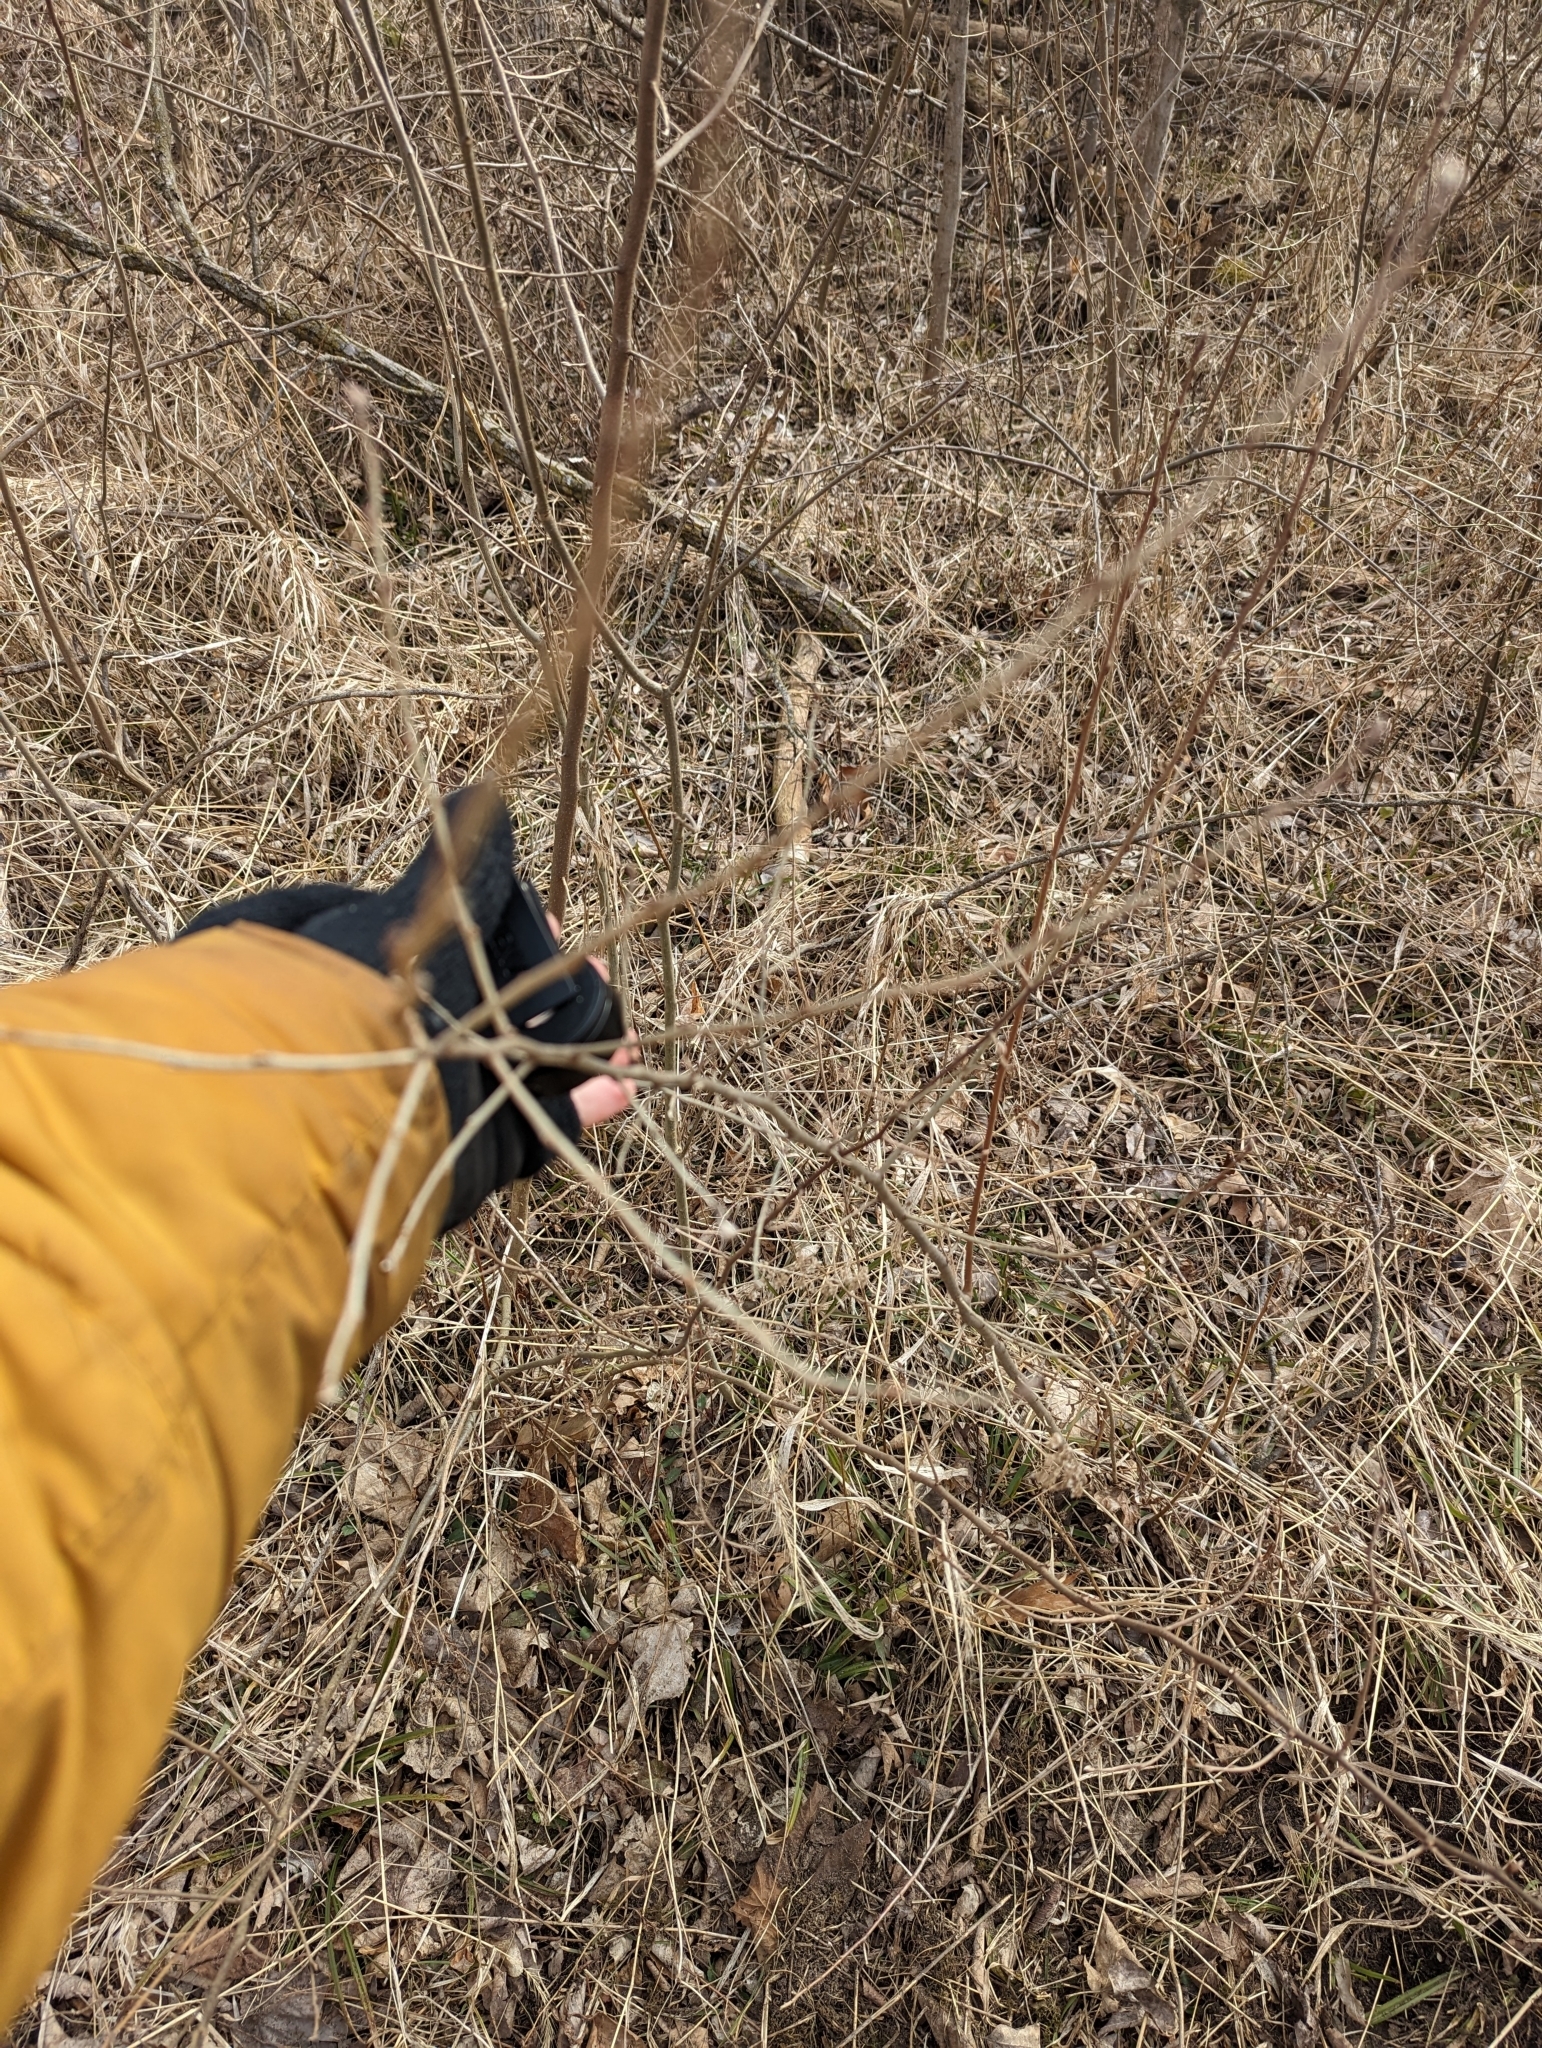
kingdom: Plantae
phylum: Tracheophyta
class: Magnoliopsida
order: Rosales
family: Elaeagnaceae
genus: Elaeagnus
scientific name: Elaeagnus umbellata
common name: Autumn olive
